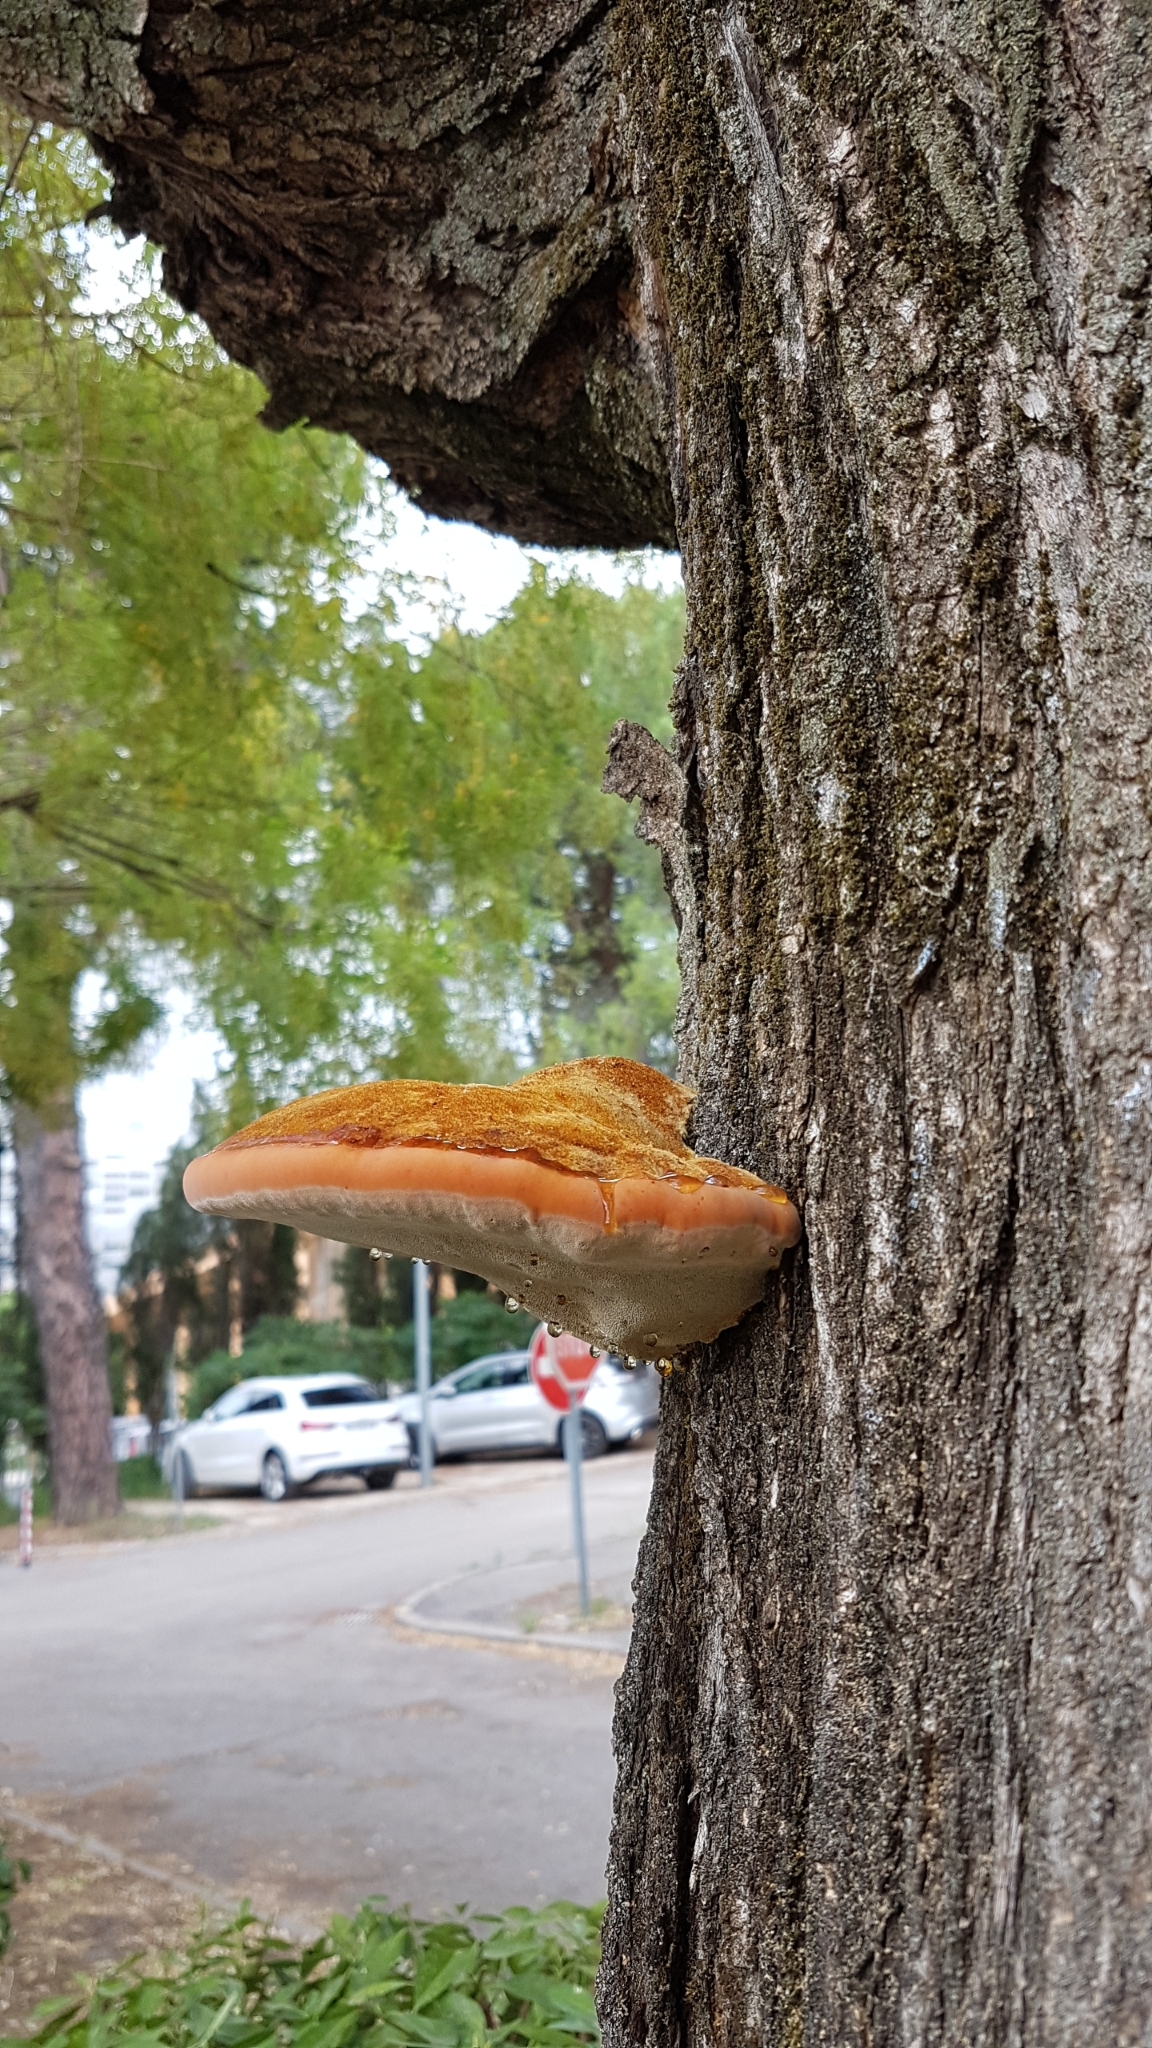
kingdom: Fungi
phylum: Basidiomycota
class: Agaricomycetes
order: Hymenochaetales
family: Hymenochaetaceae
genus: Inonotus
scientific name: Inonotus hispidus
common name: Shaggy bracket
